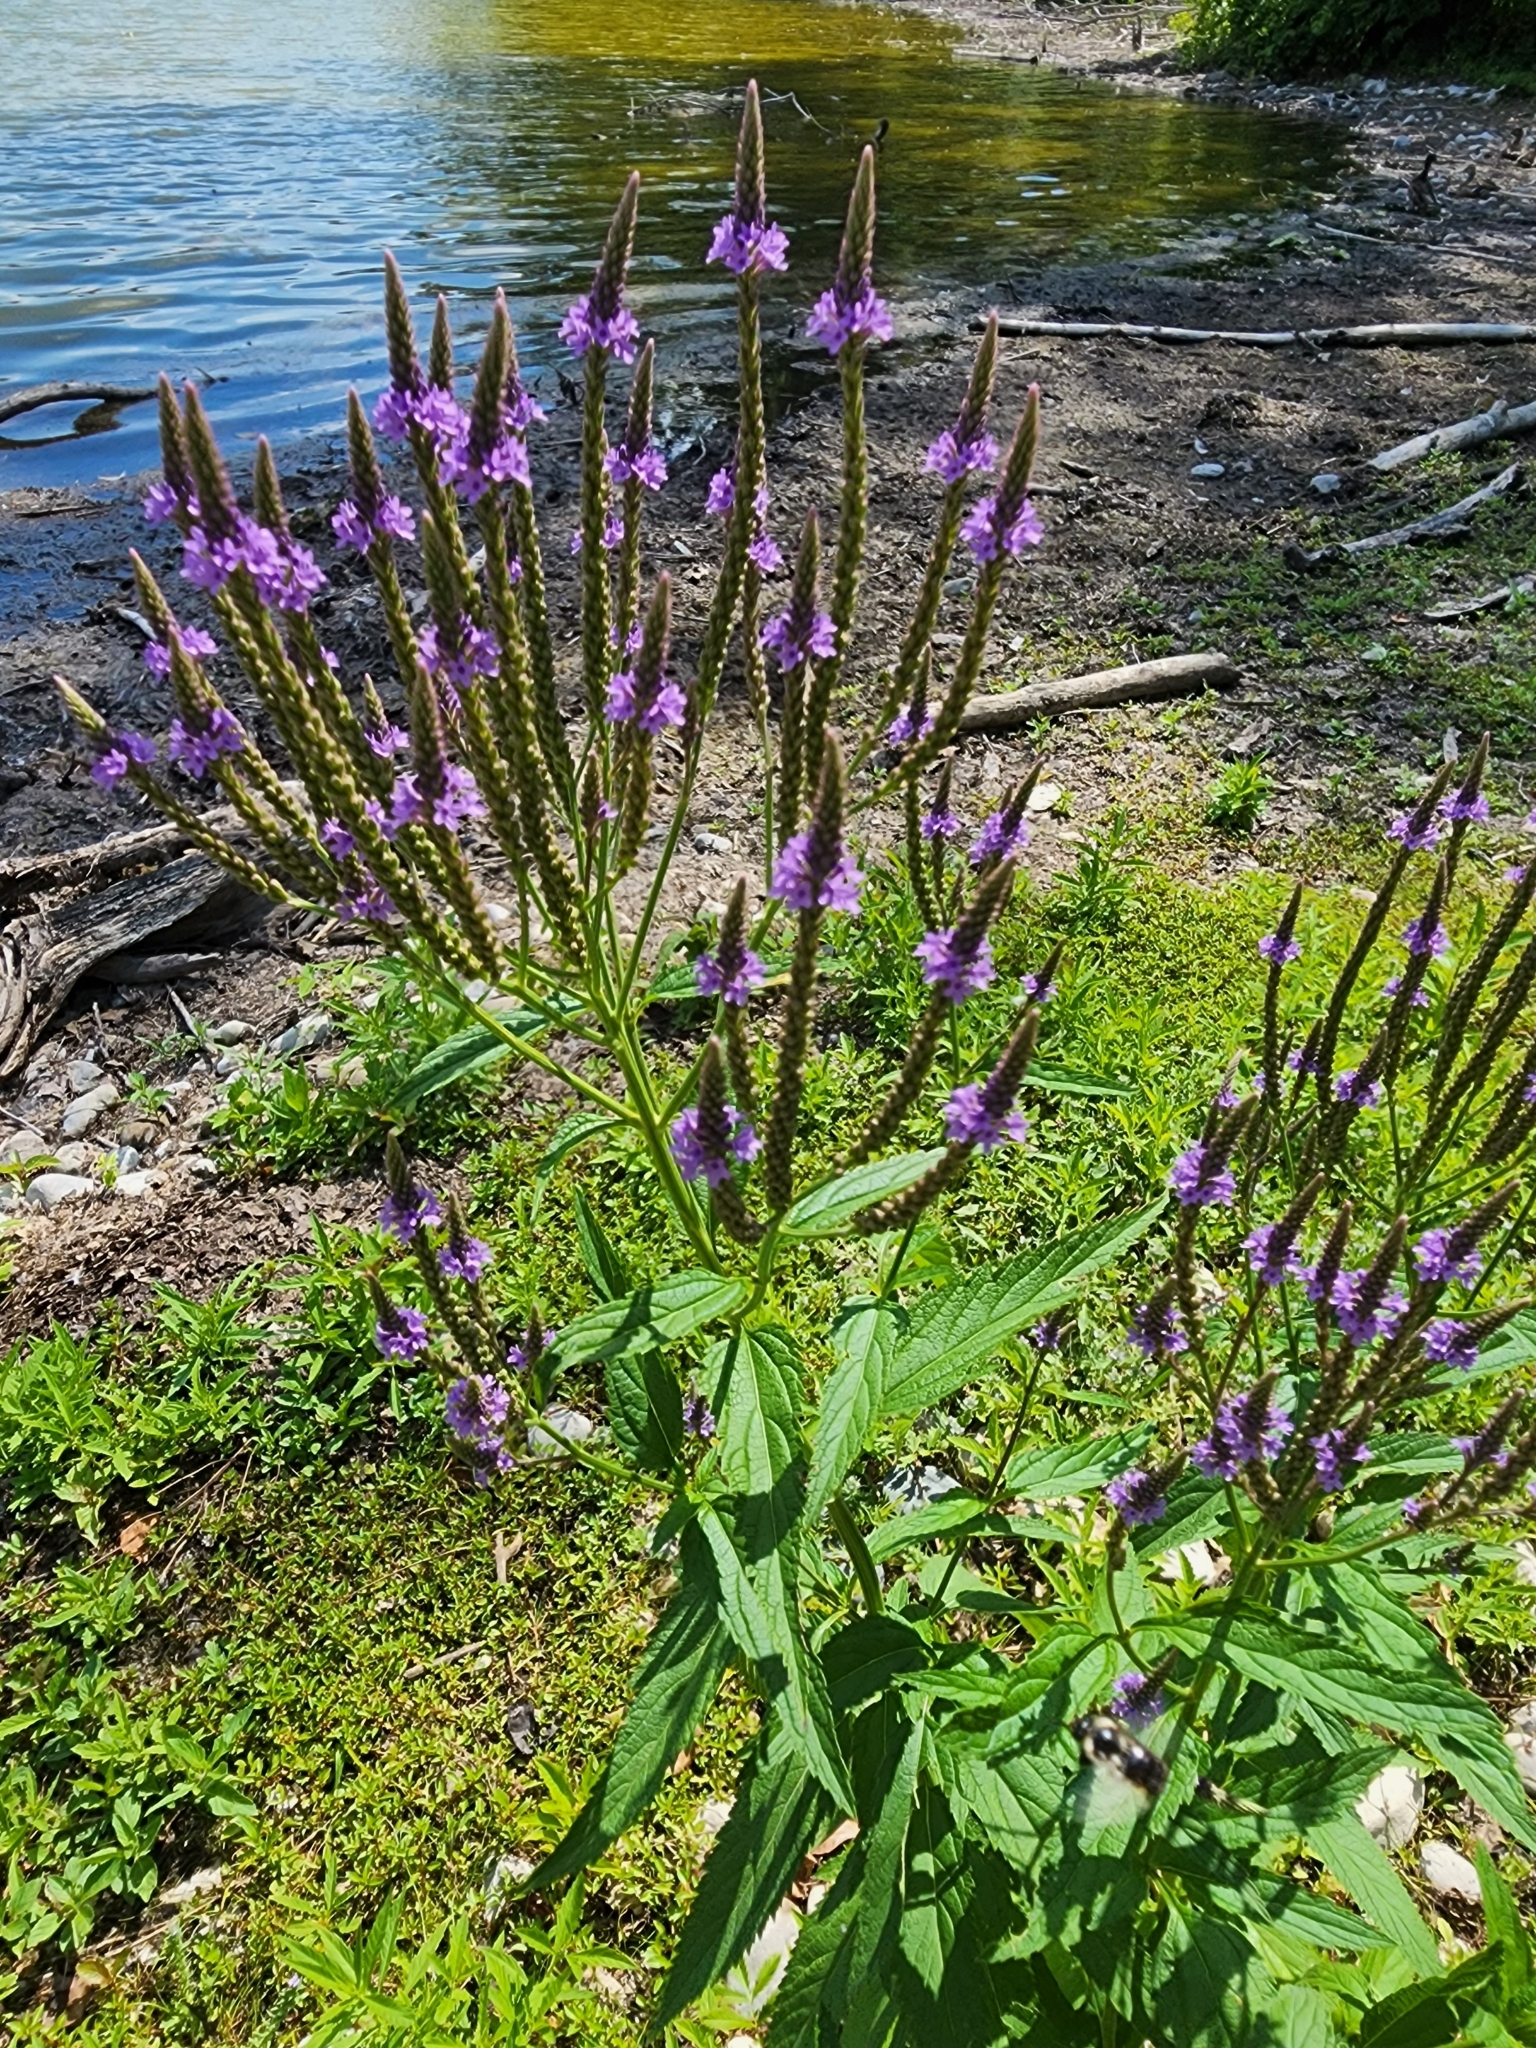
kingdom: Plantae
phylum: Tracheophyta
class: Magnoliopsida
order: Lamiales
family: Verbenaceae
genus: Verbena
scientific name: Verbena hastata
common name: American blue vervain
